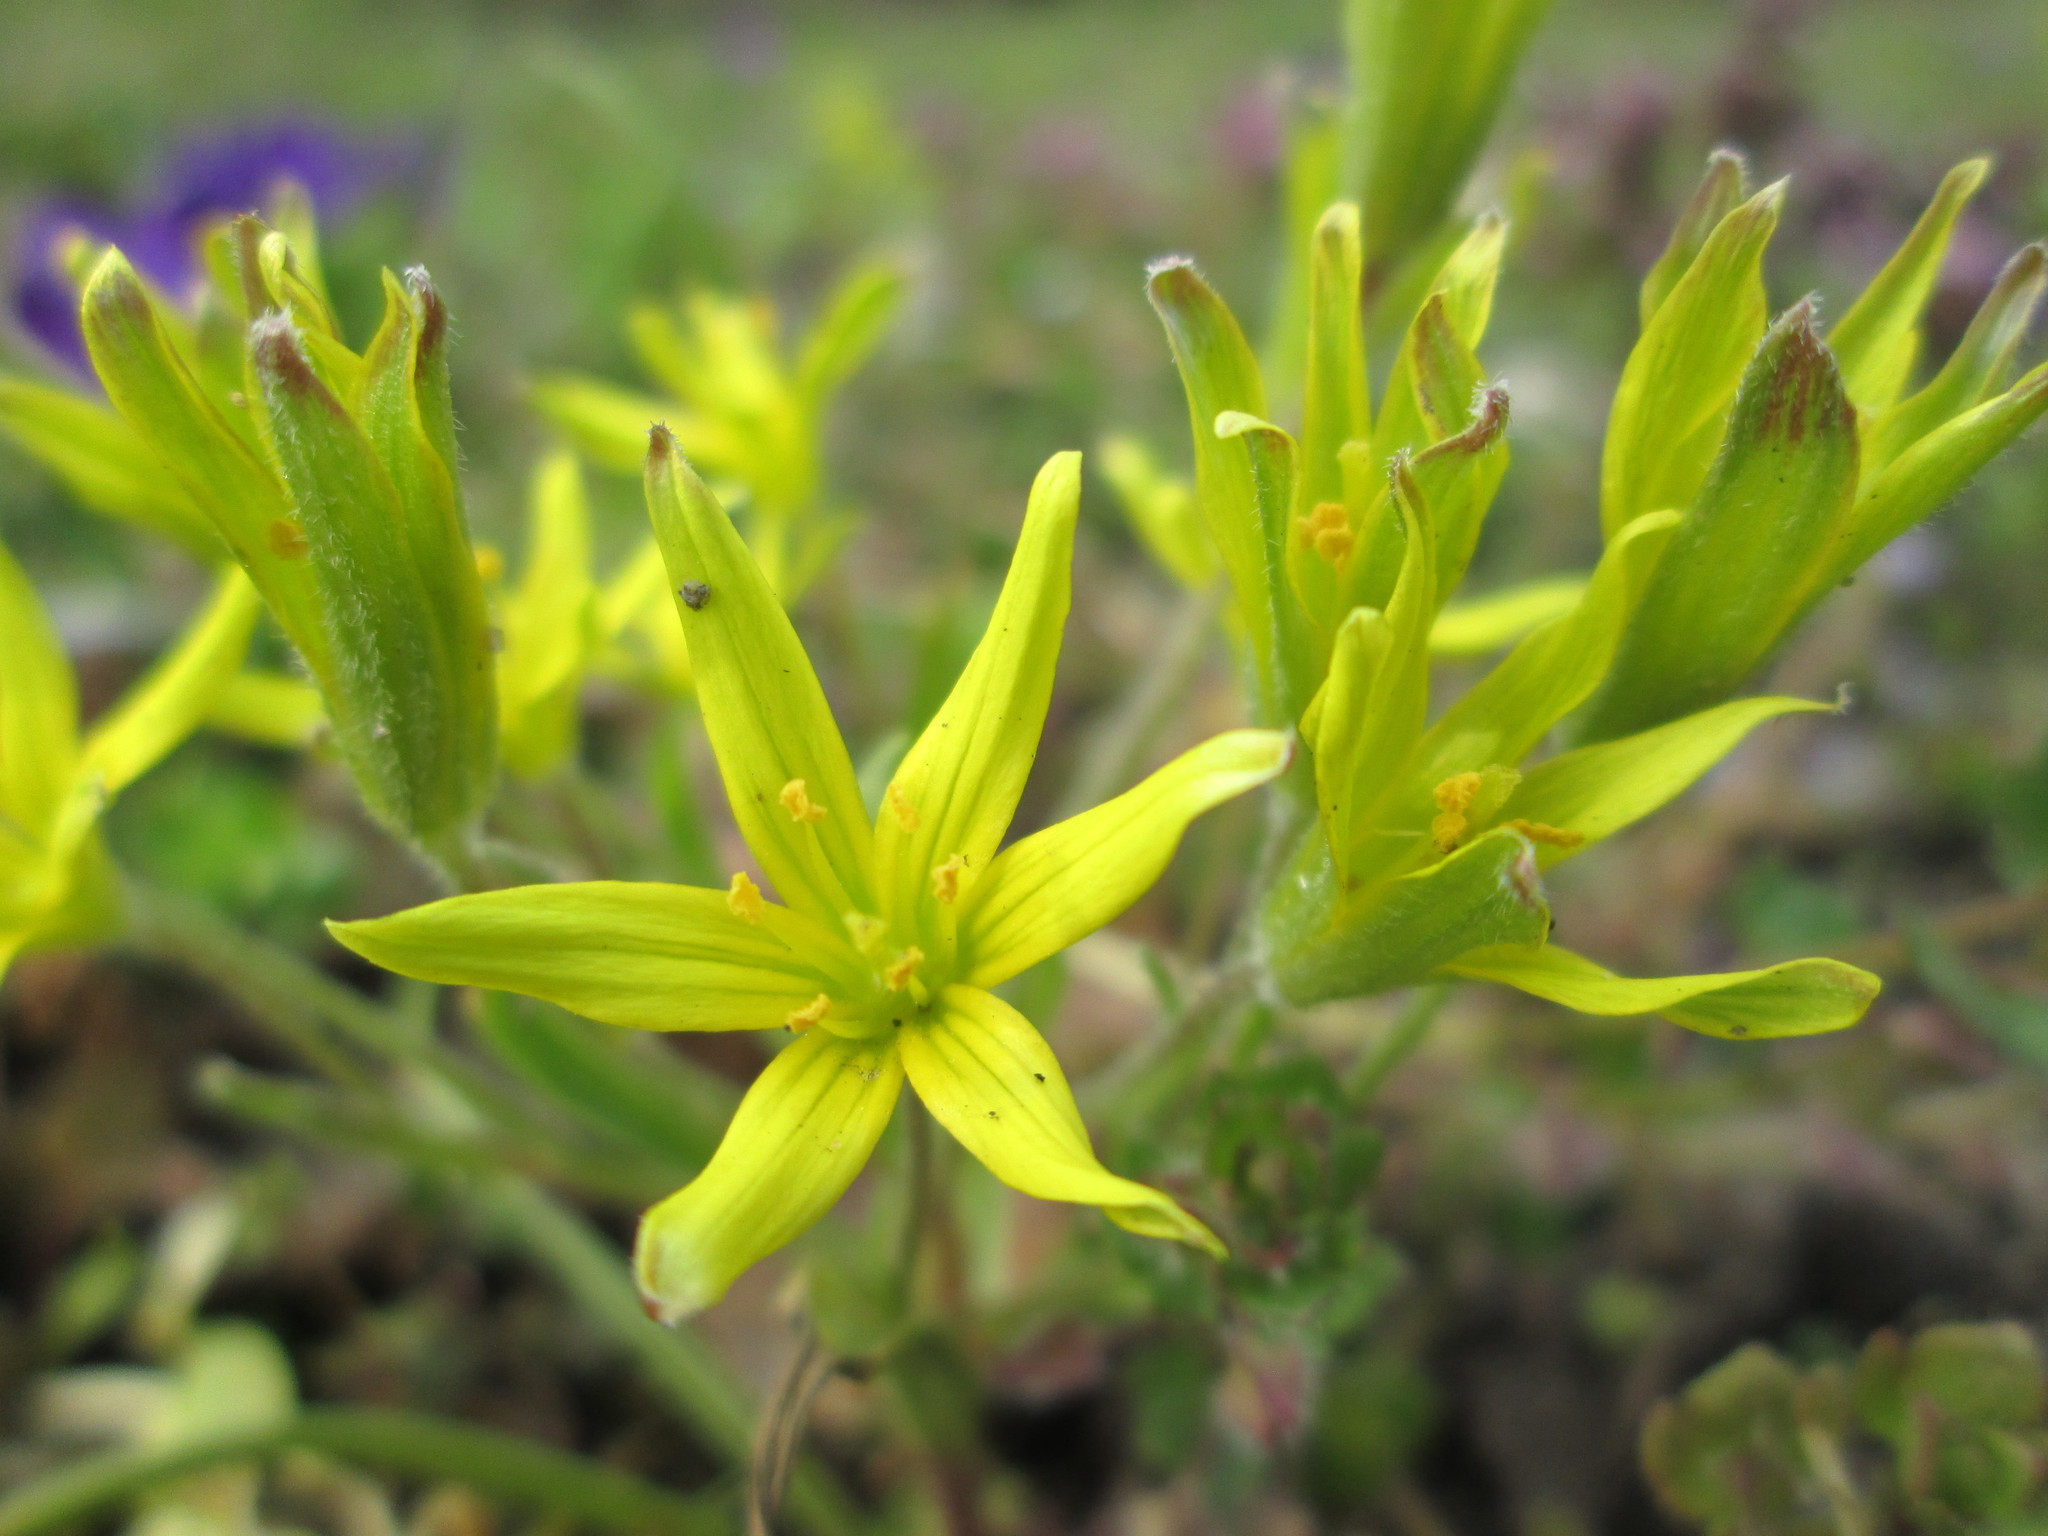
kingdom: Plantae
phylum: Tracheophyta
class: Liliopsida
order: Liliales
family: Liliaceae
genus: Gagea
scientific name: Gagea villosa
